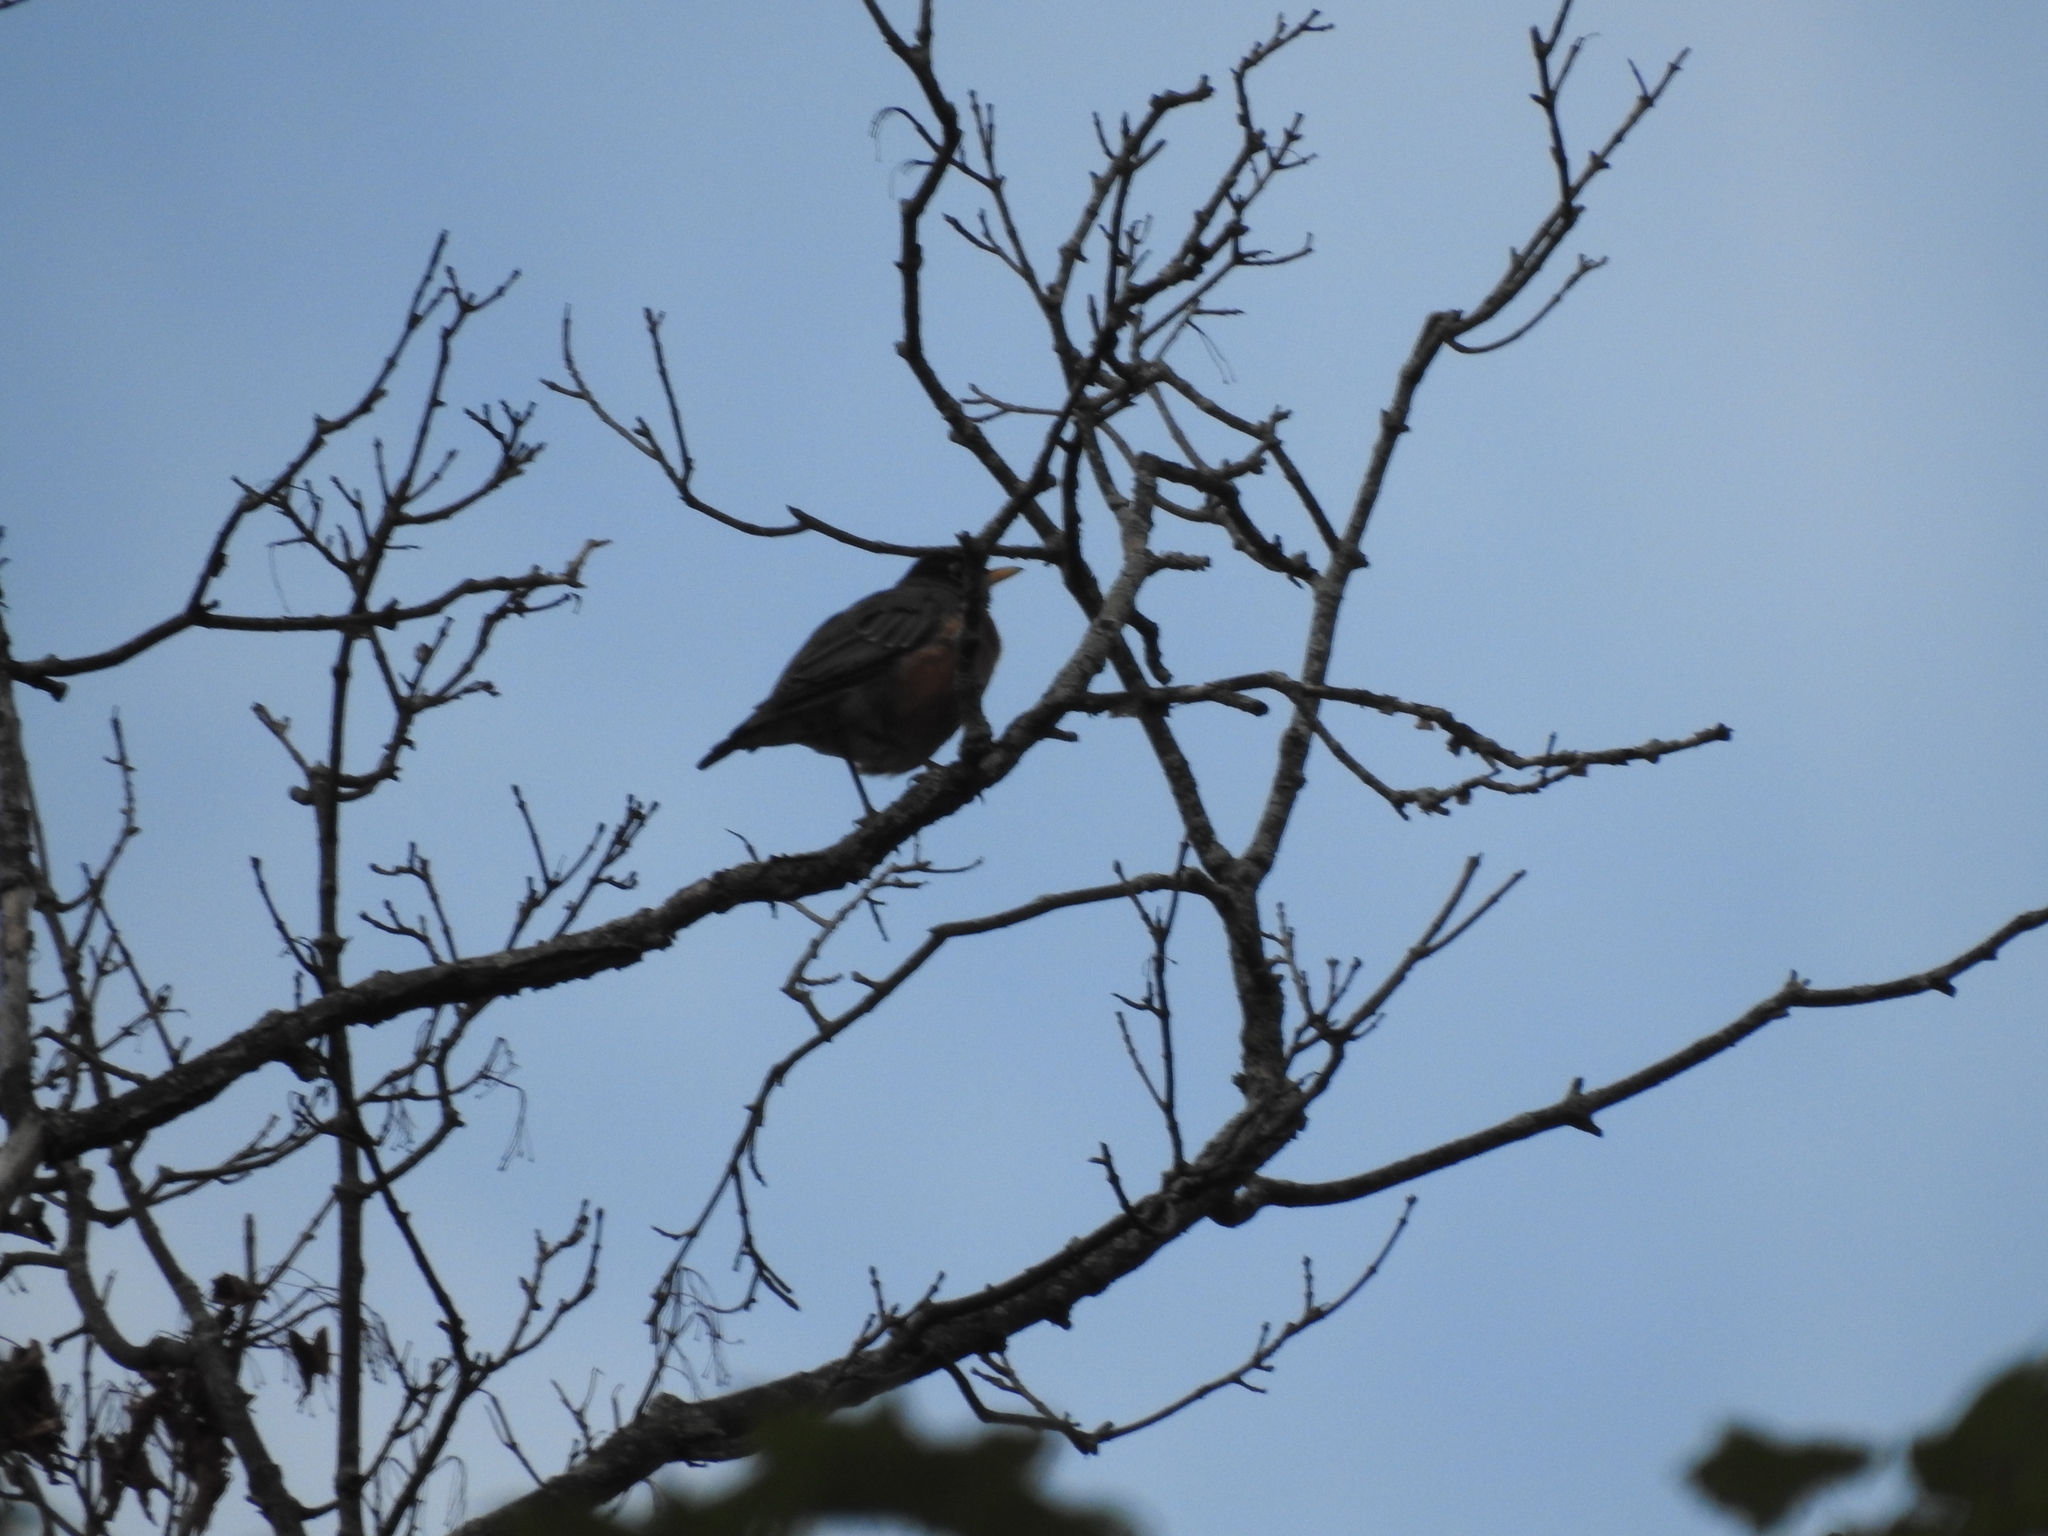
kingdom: Animalia
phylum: Chordata
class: Aves
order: Passeriformes
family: Turdidae
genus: Turdus
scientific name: Turdus migratorius
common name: American robin
